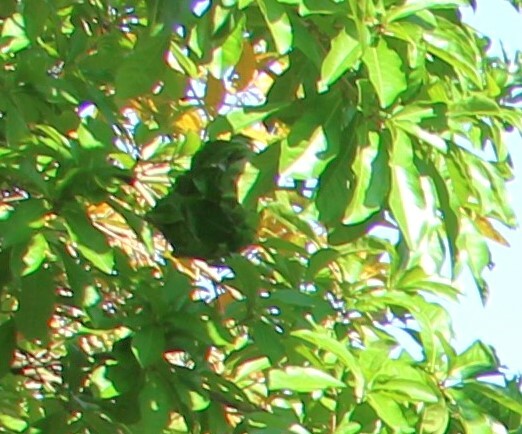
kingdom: Animalia
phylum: Arthropoda
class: Insecta
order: Hymenoptera
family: Formicidae
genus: Oecophylla
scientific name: Oecophylla smaragdina
